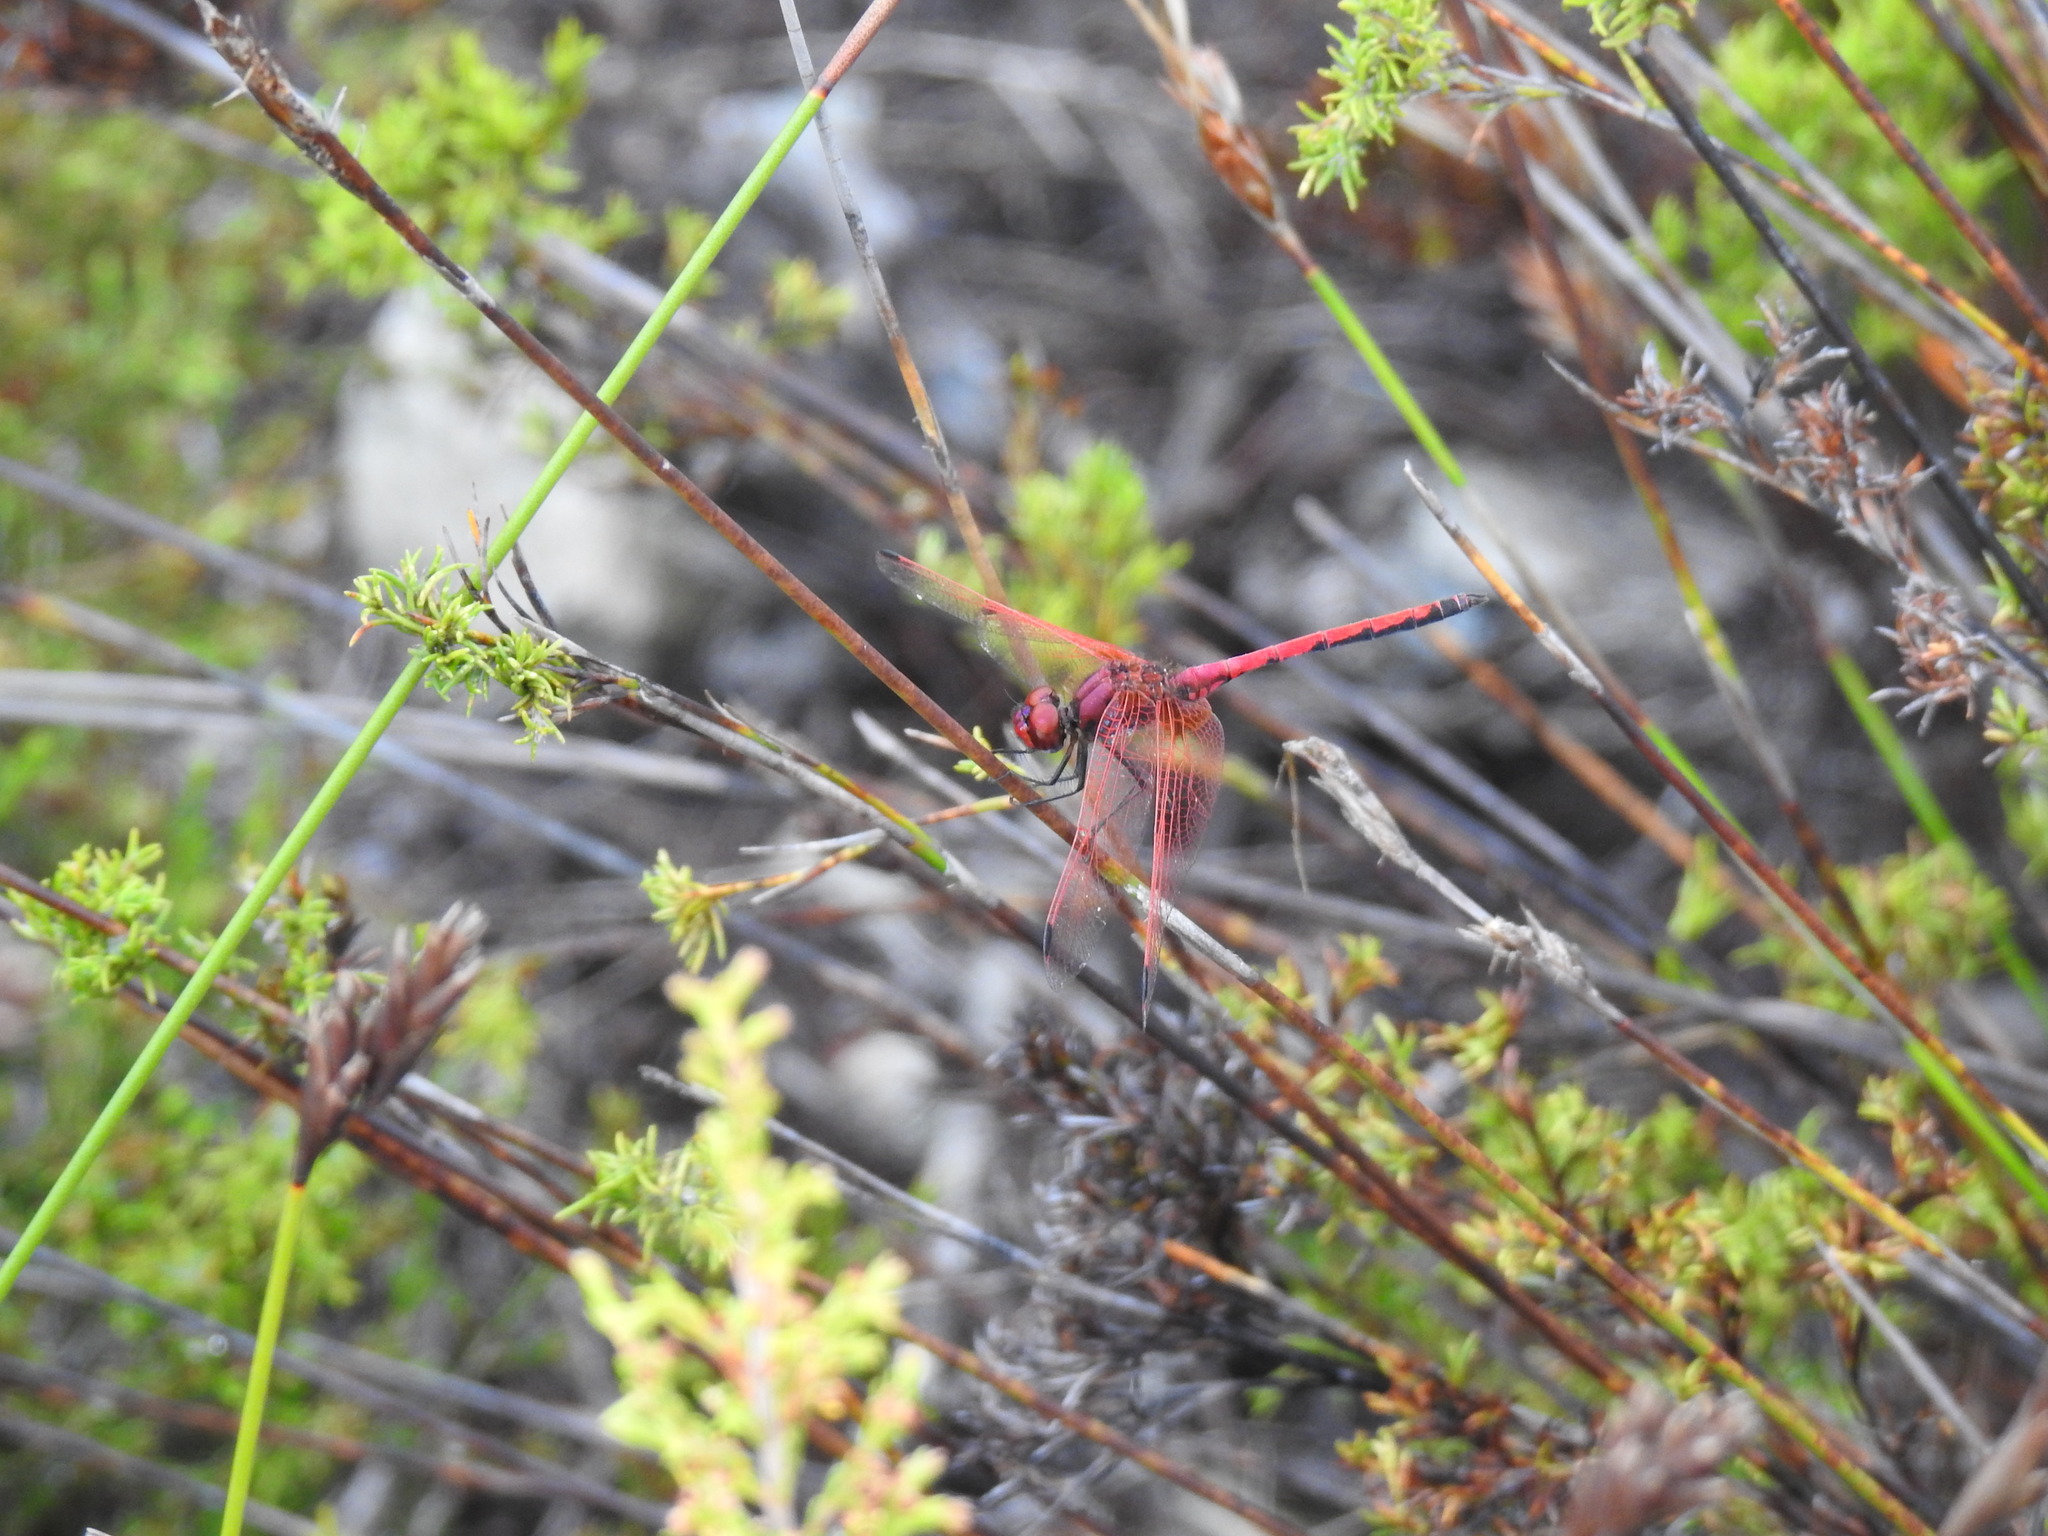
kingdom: Animalia
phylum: Arthropoda
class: Insecta
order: Odonata
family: Libellulidae
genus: Trithemis
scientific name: Trithemis arteriosa
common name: Red-veined dropwing
